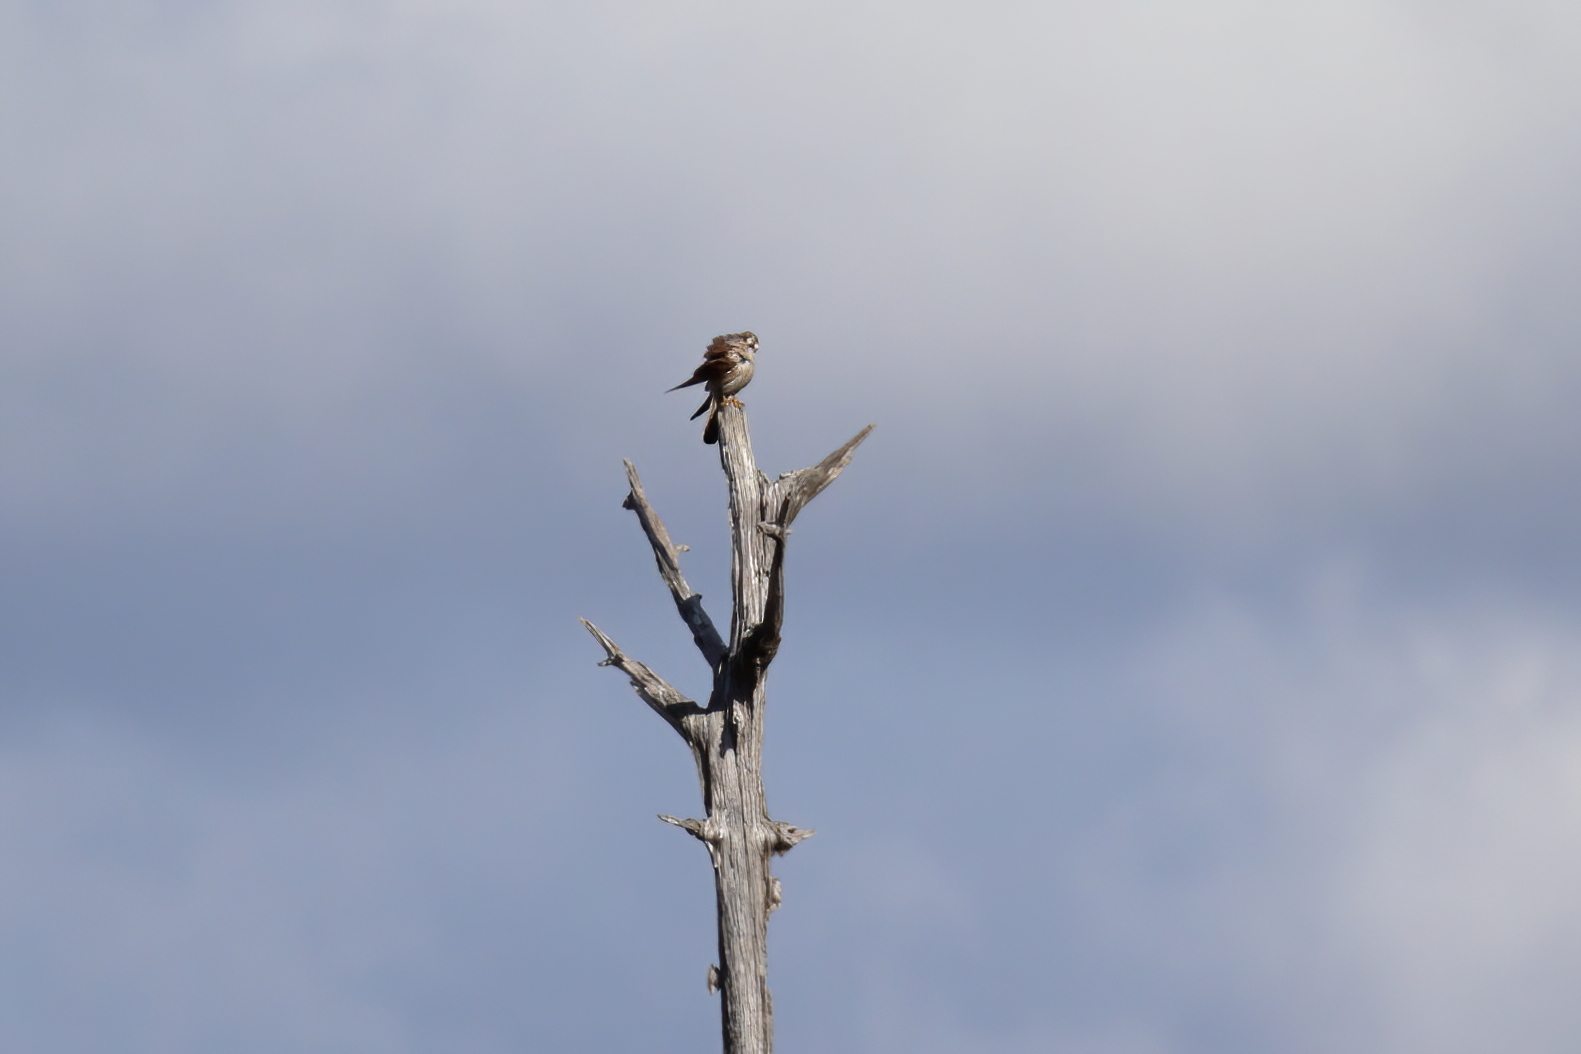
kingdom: Animalia
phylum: Chordata
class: Aves
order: Falconiformes
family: Falconidae
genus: Falco
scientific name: Falco sparverius
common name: American kestrel
